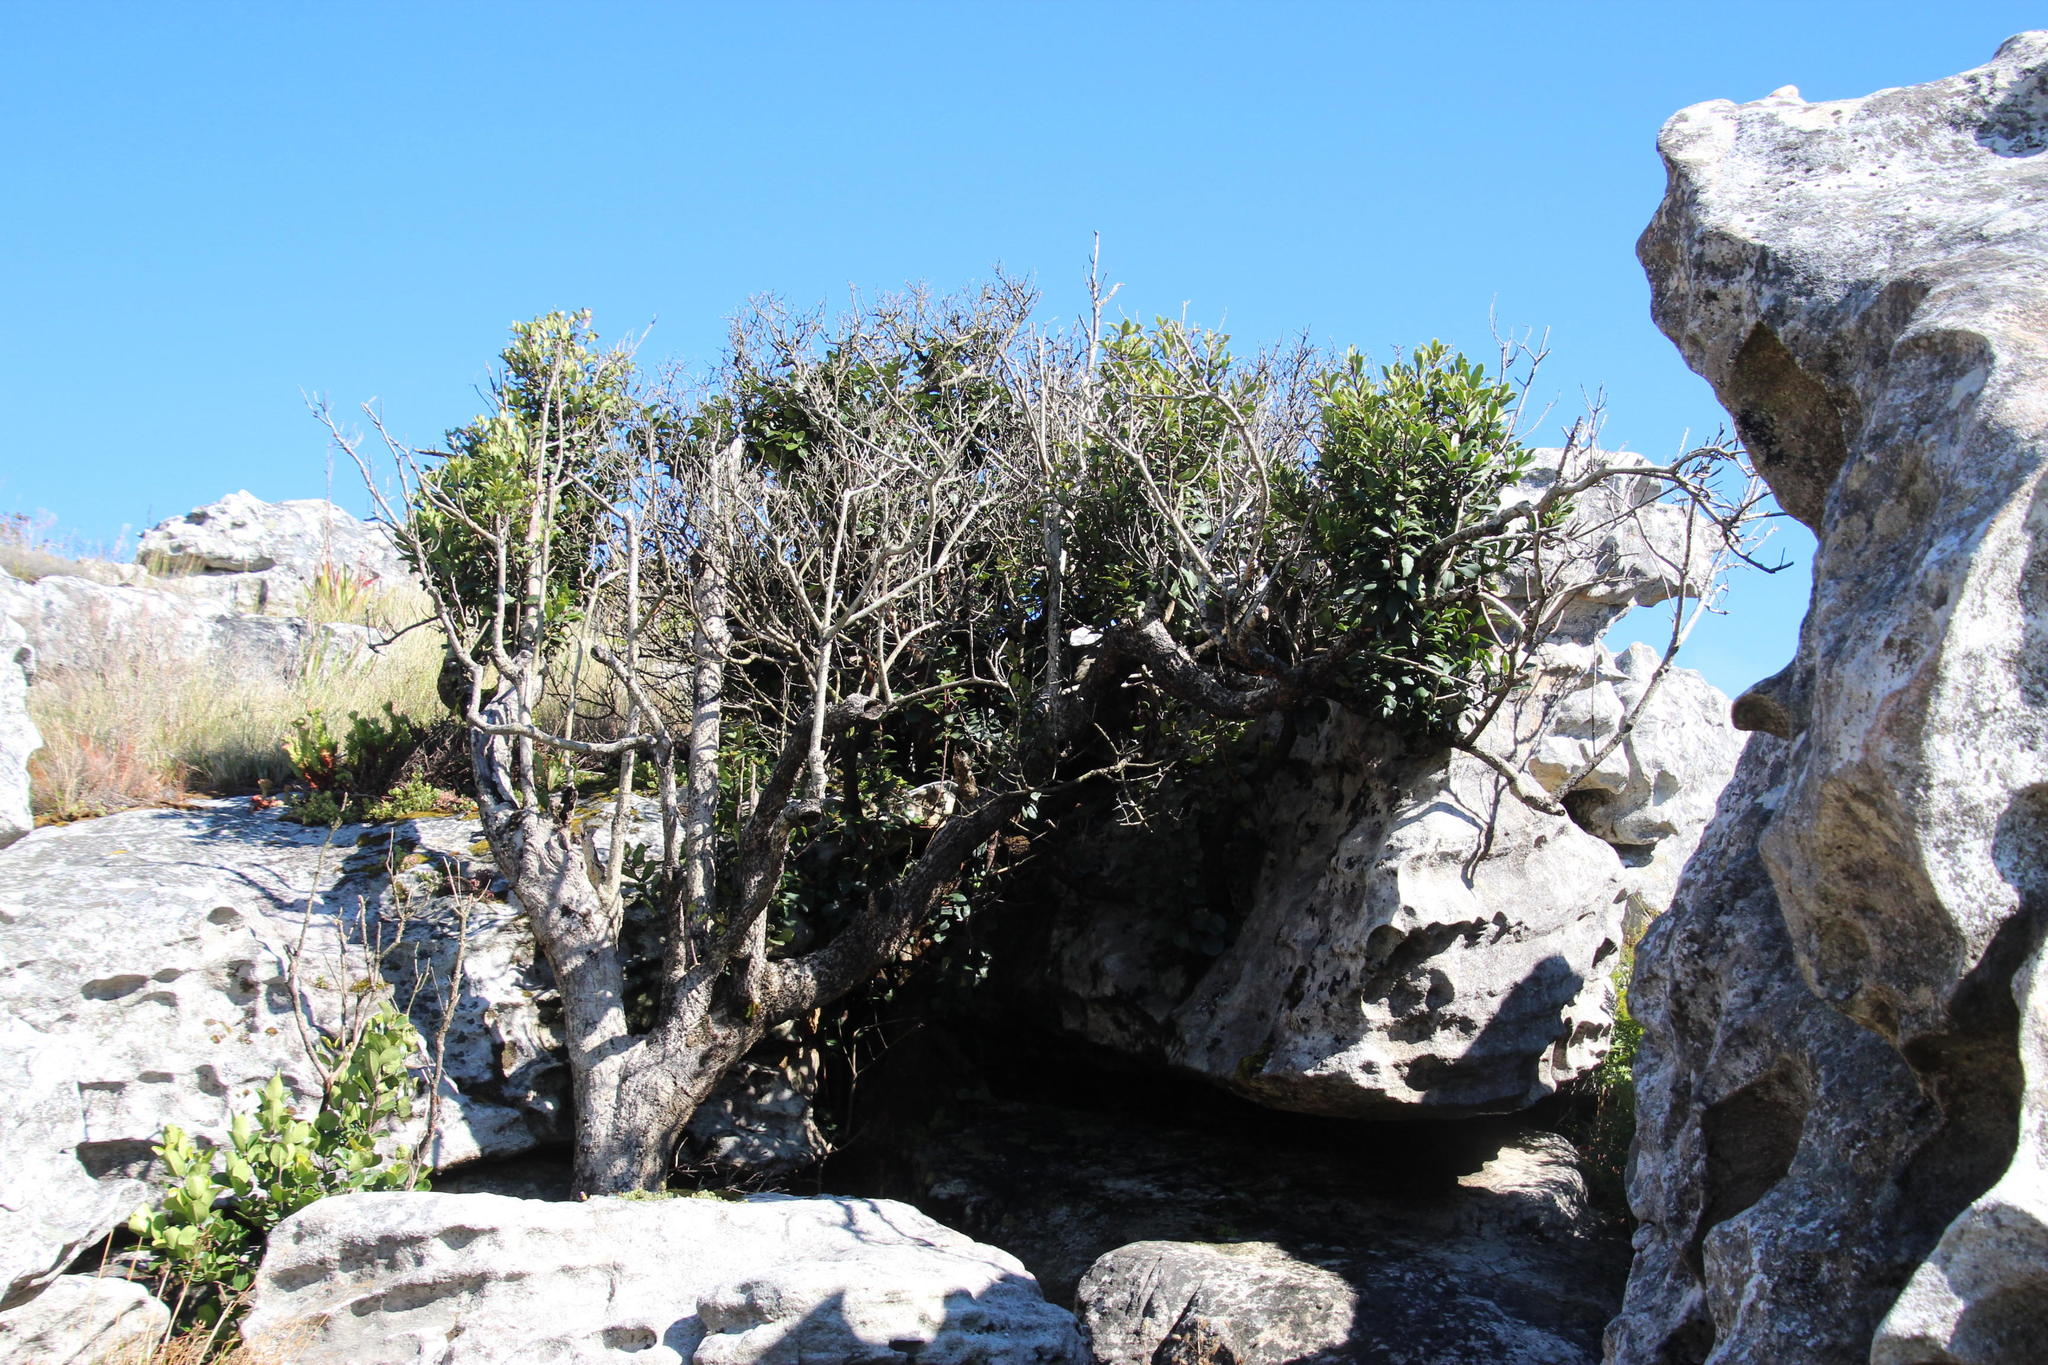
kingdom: Plantae
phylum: Tracheophyta
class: Magnoliopsida
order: Ericales
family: Primulaceae
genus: Myrsine
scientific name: Myrsine melanophloeos
